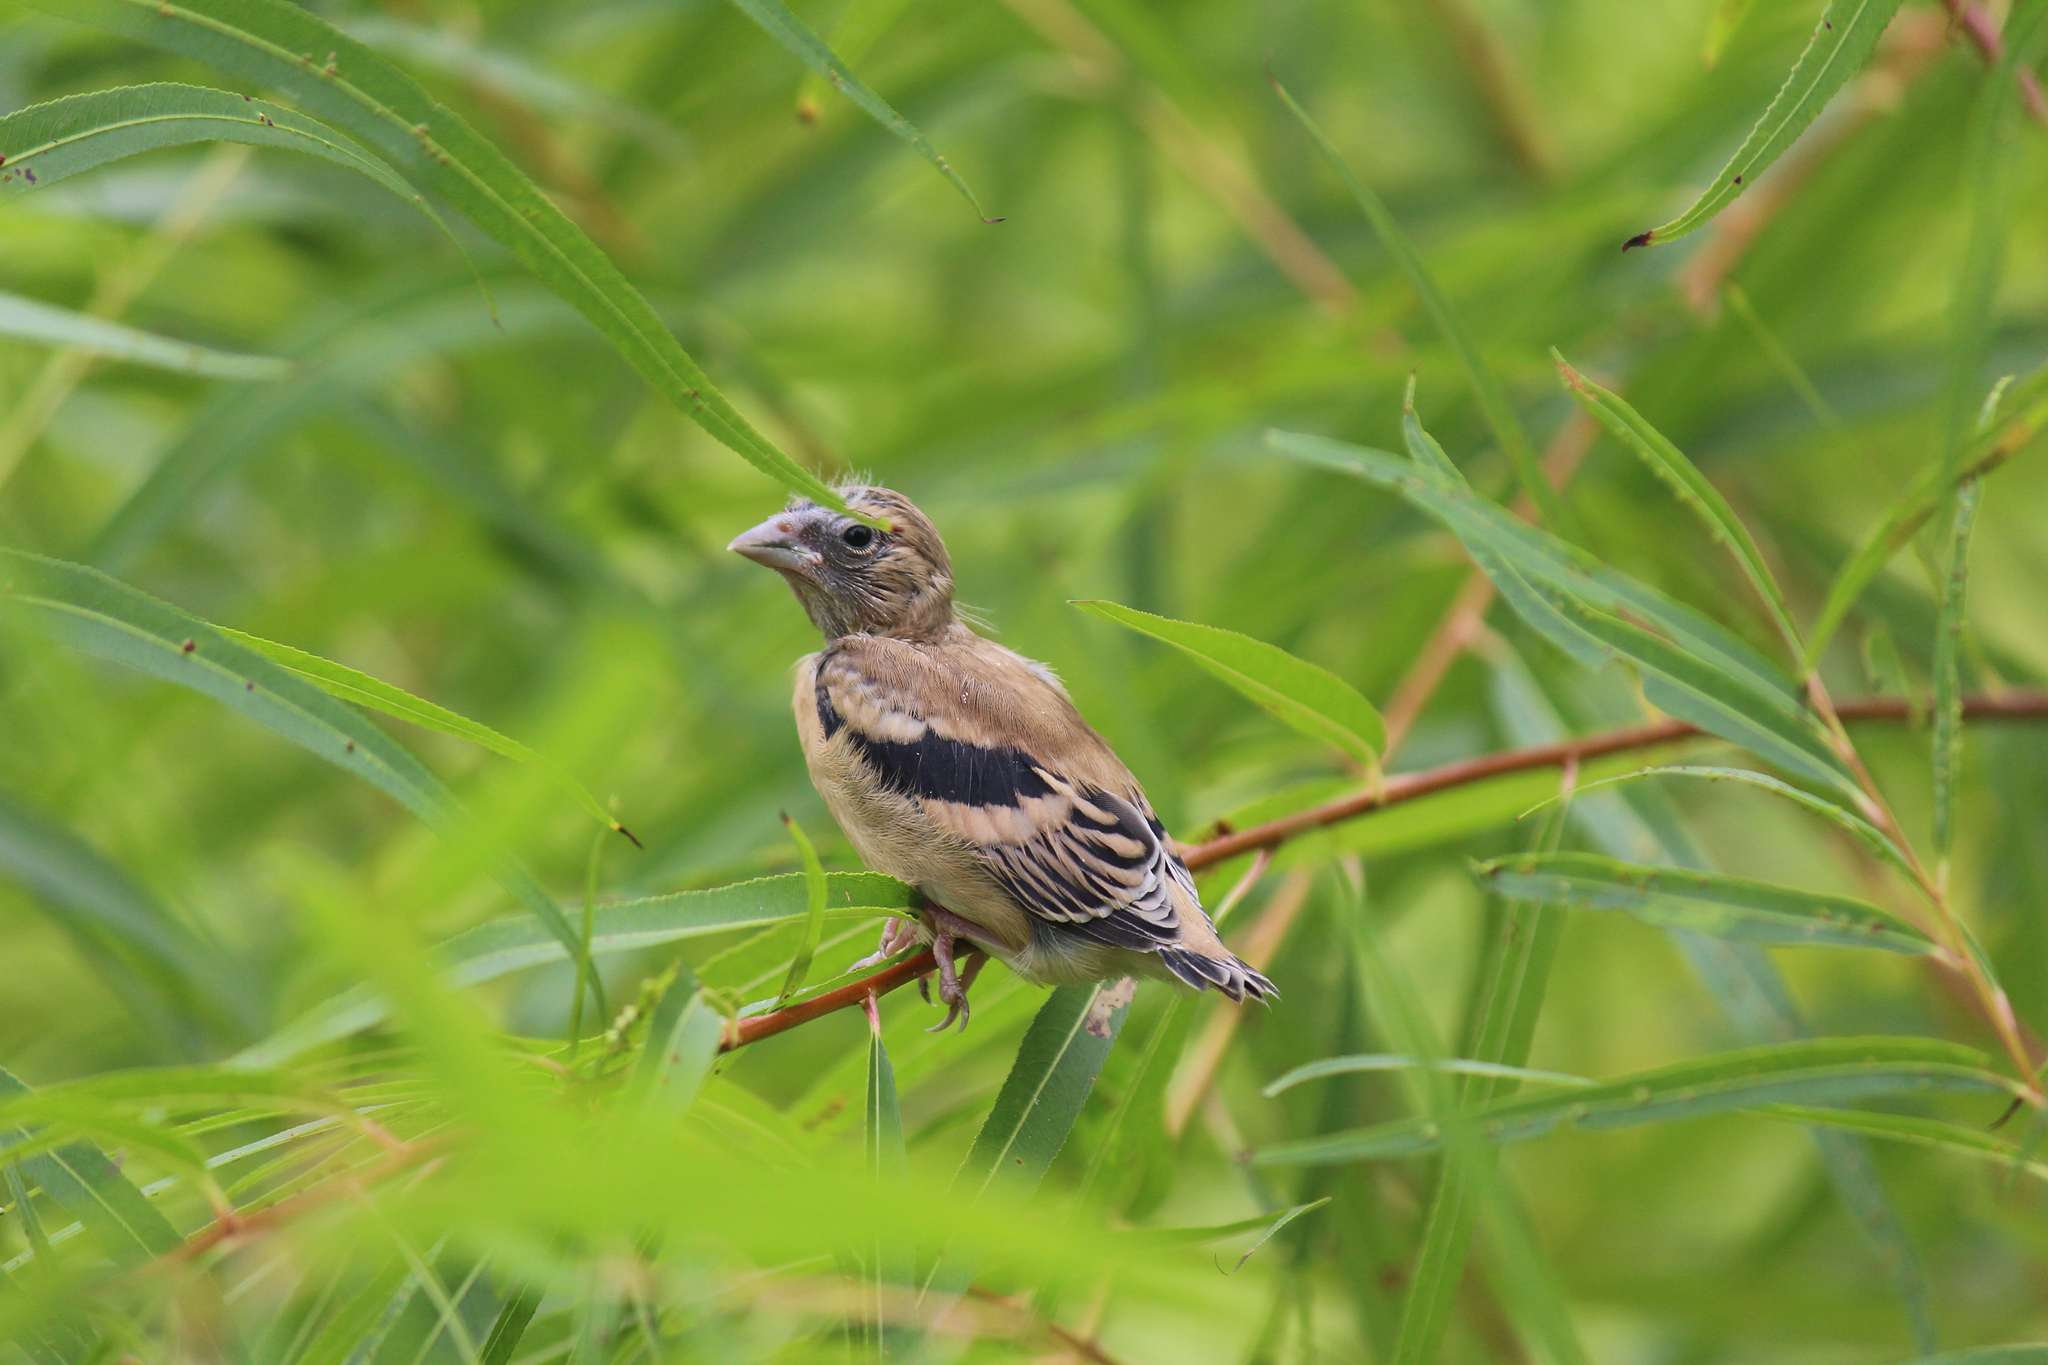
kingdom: Animalia
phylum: Chordata
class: Aves
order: Passeriformes
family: Fringillidae
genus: Spinus
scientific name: Spinus tristis
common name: American goldfinch
